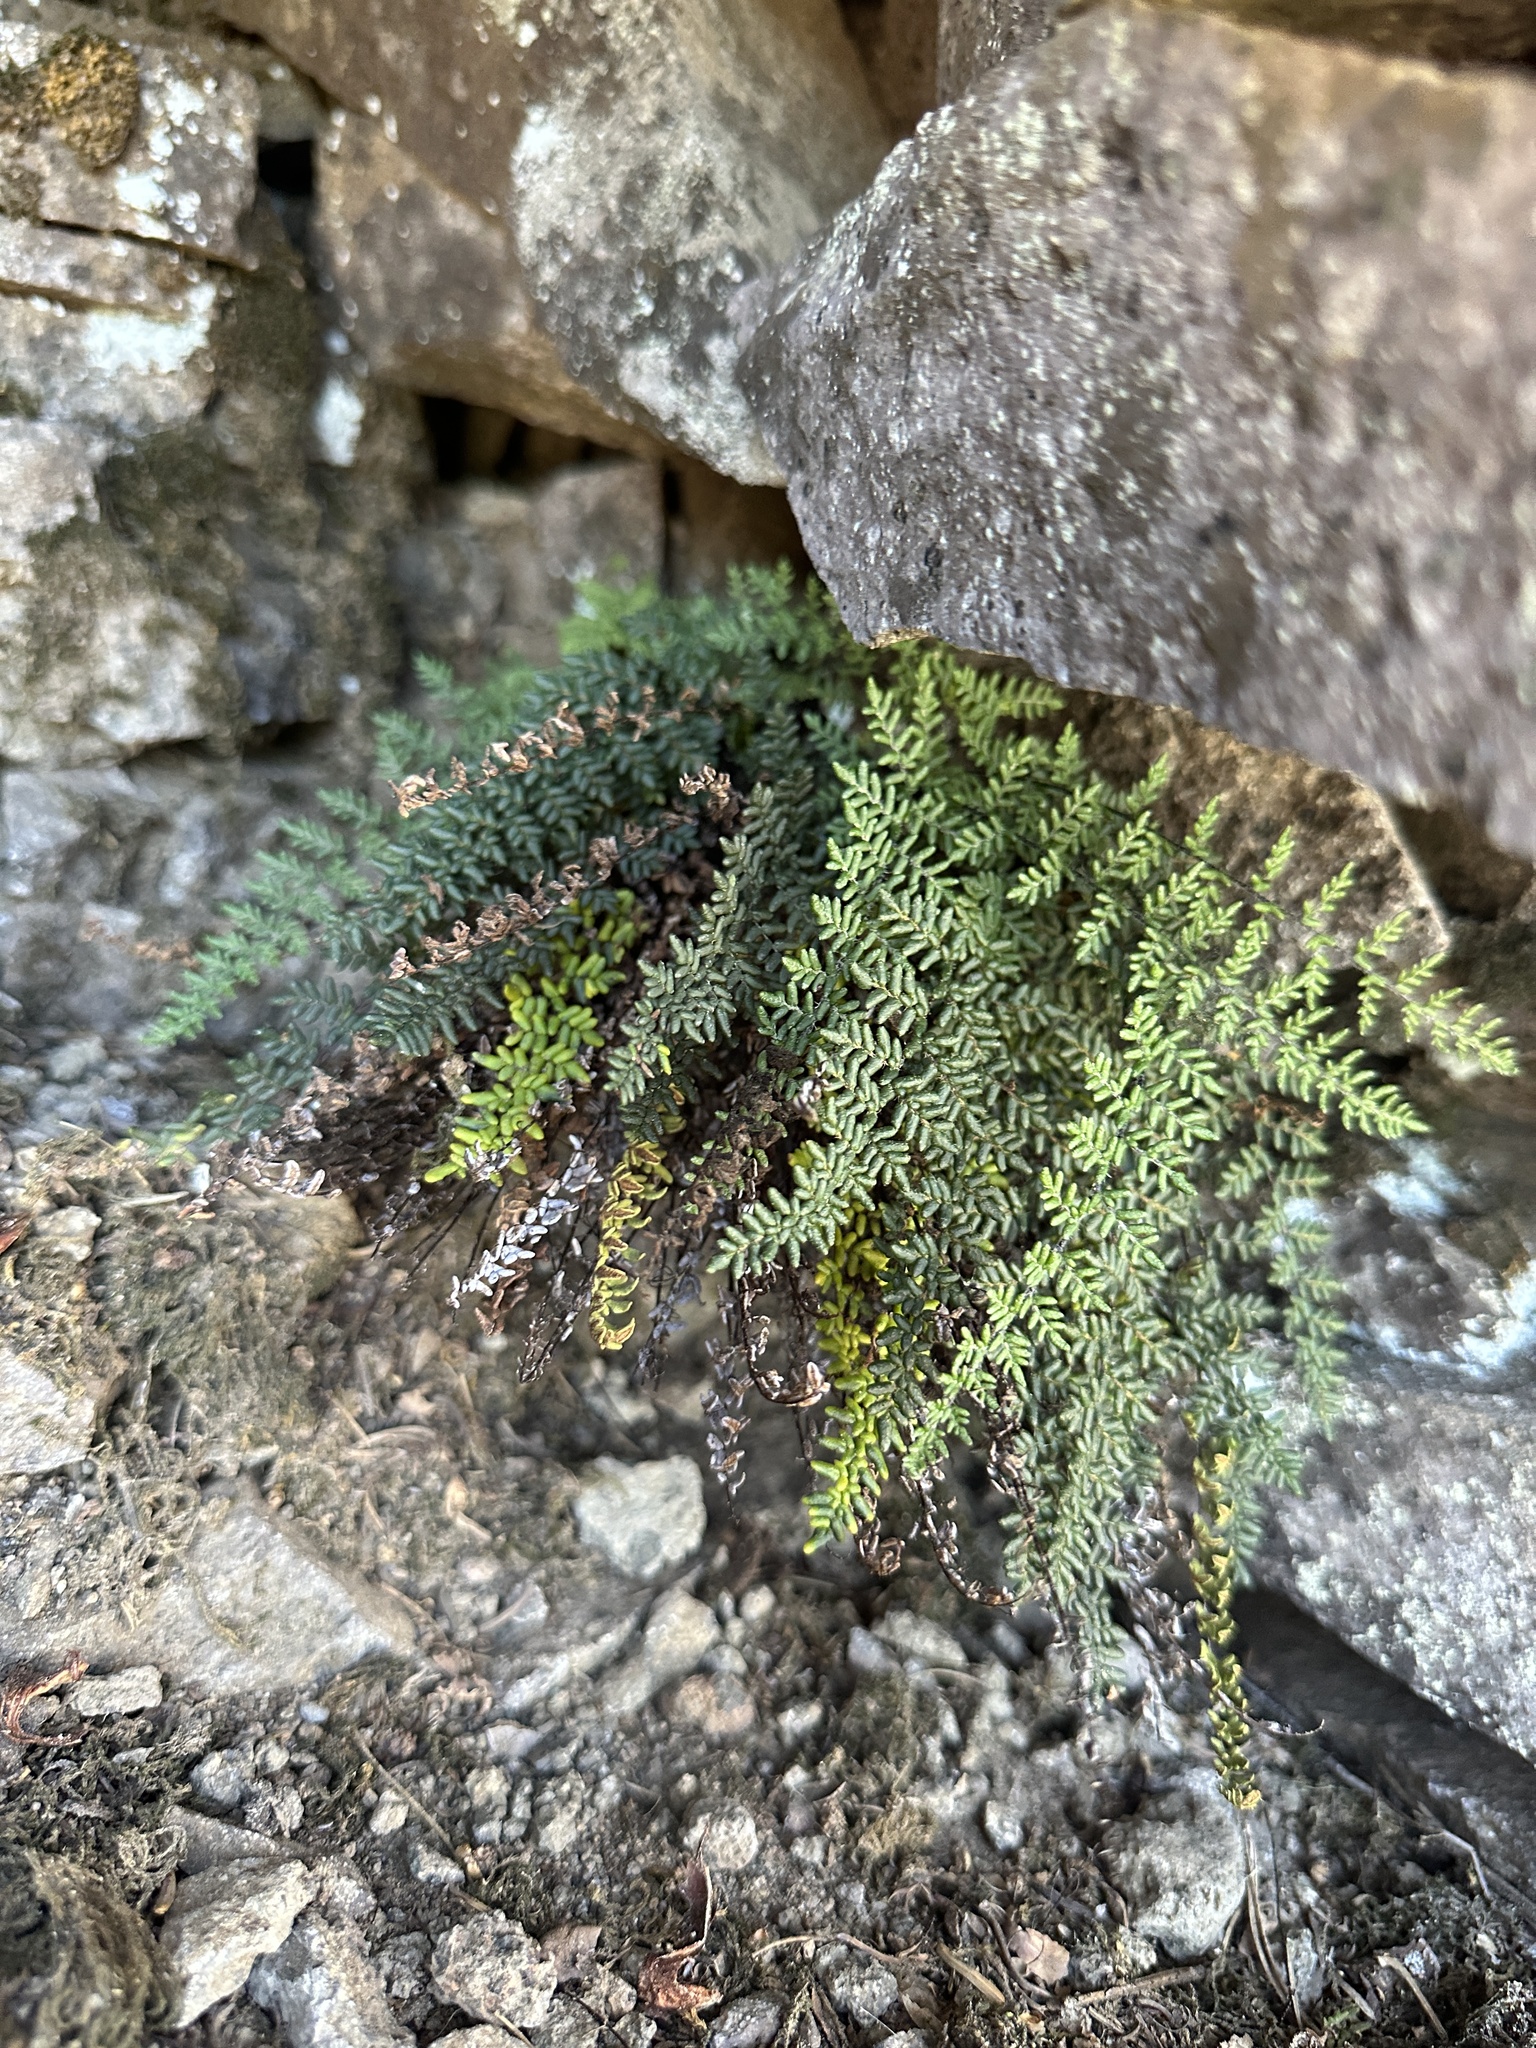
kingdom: Plantae
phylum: Tracheophyta
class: Polypodiopsida
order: Polypodiales
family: Pteridaceae
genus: Myriopteris
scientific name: Myriopteris gracillima
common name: Lace fern
